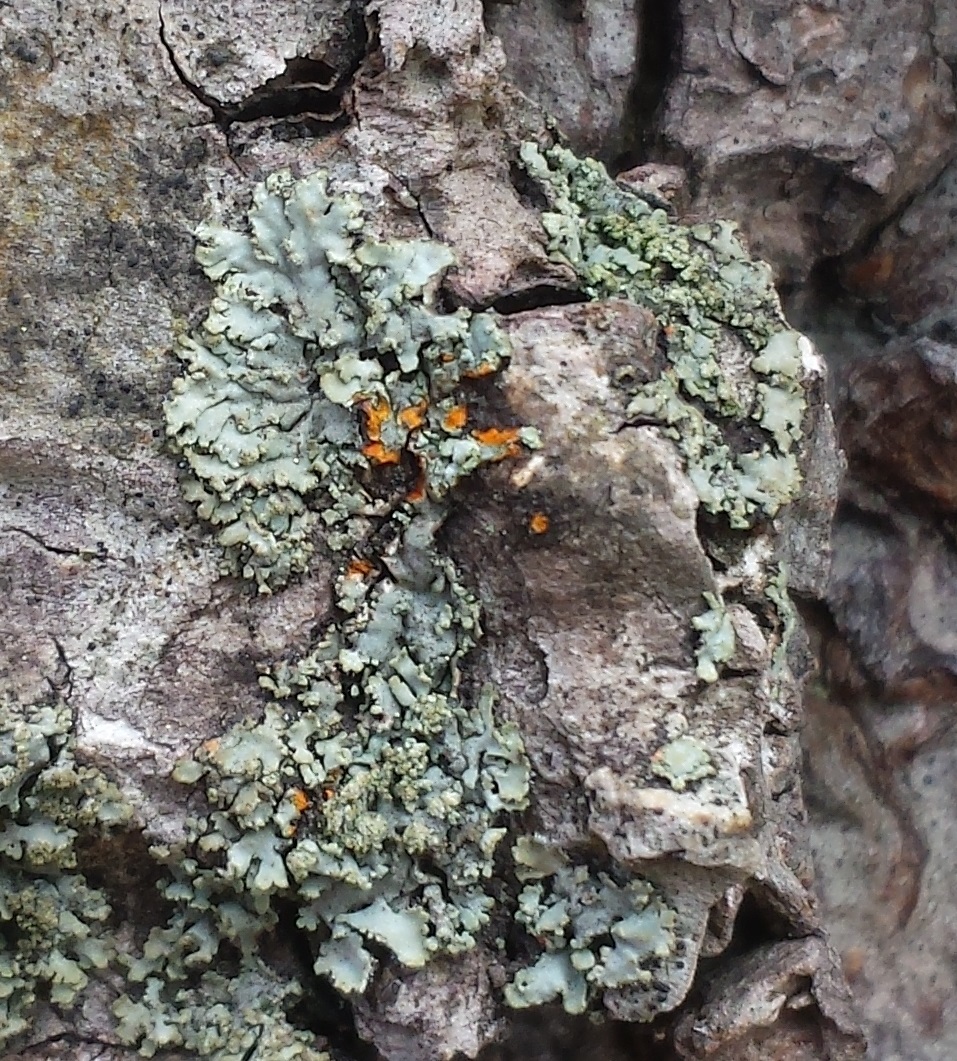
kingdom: Fungi
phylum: Ascomycota
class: Lecanoromycetes
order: Caliciales
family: Physciaceae
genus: Phaeophyscia
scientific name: Phaeophyscia rubropulchra
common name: Orange-cored shadow lichen
